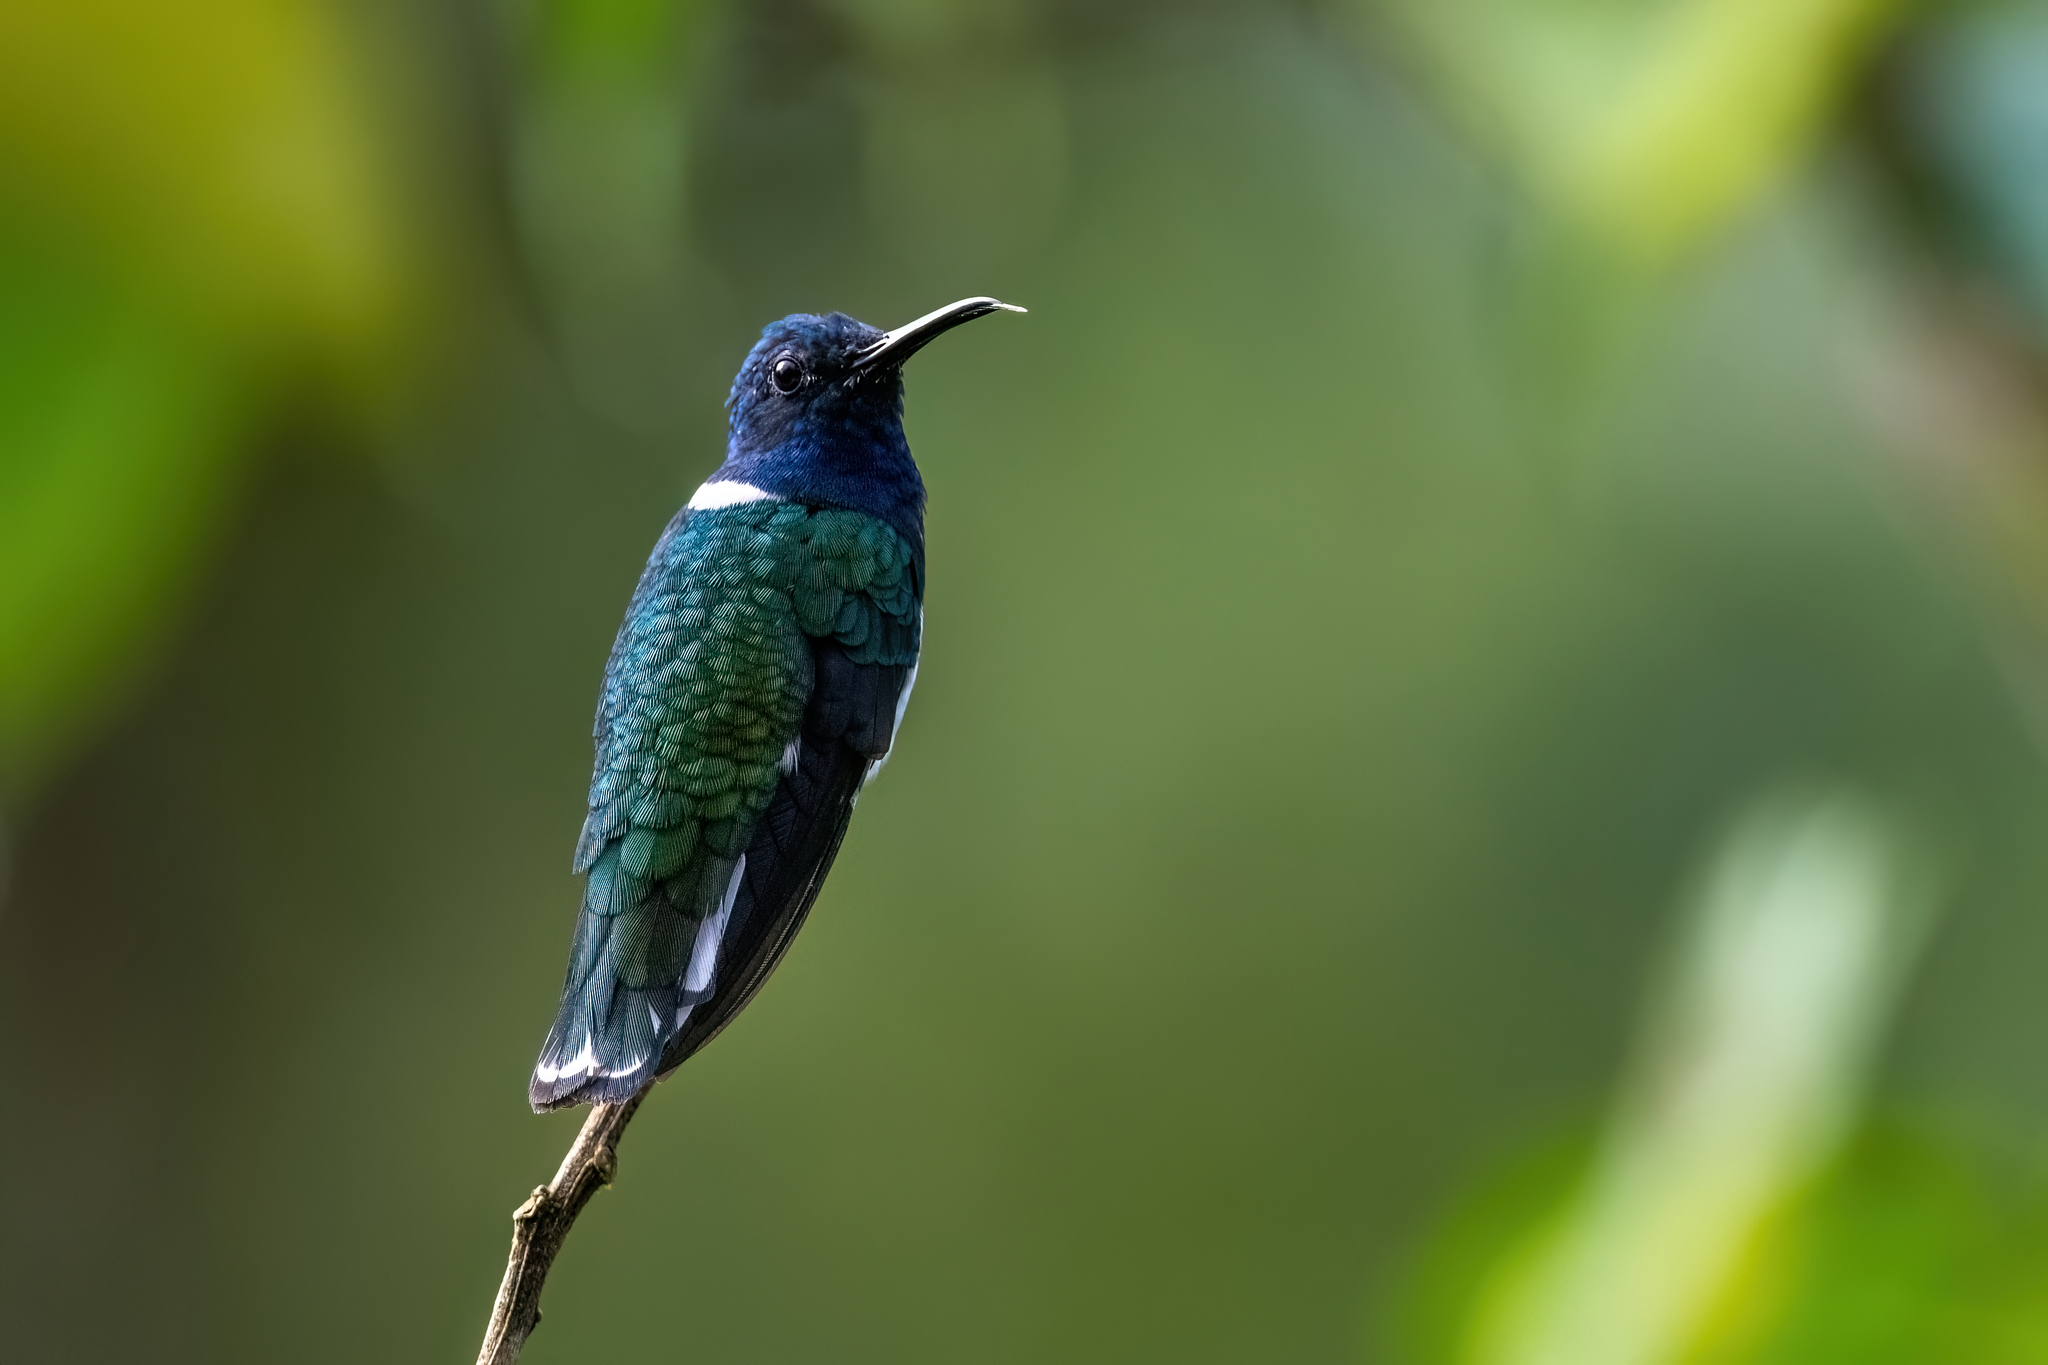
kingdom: Animalia
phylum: Chordata
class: Aves
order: Apodiformes
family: Trochilidae
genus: Florisuga
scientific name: Florisuga mellivora
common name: White-necked jacobin
